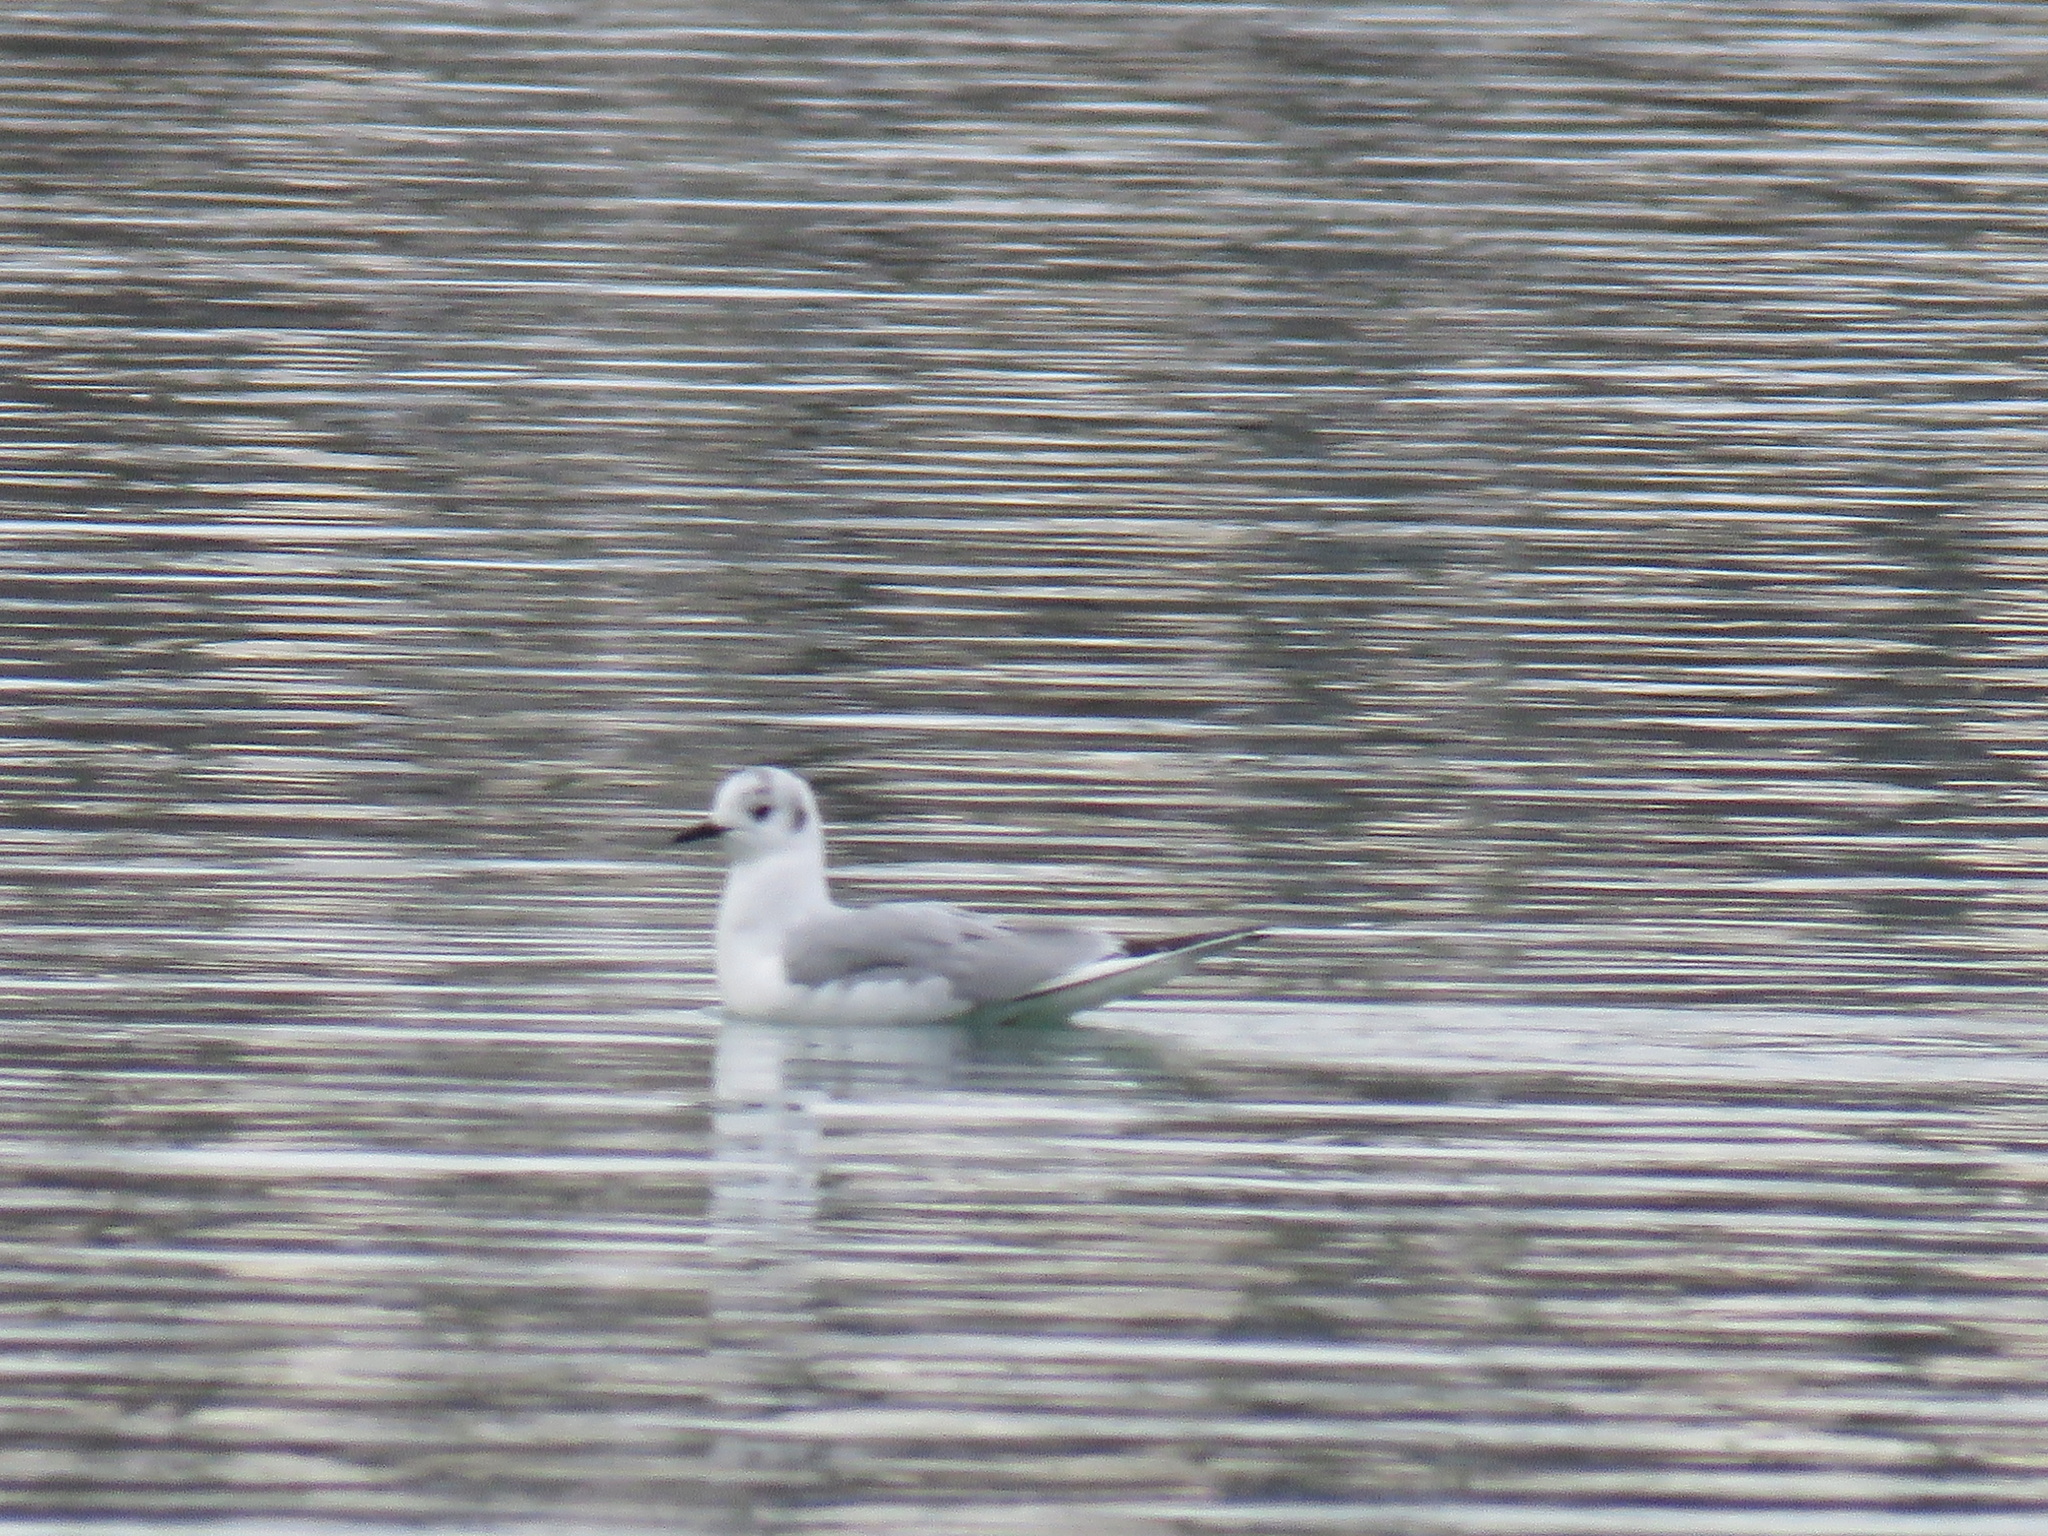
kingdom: Animalia
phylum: Chordata
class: Aves
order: Charadriiformes
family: Laridae
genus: Chroicocephalus
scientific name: Chroicocephalus philadelphia
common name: Bonaparte's gull
